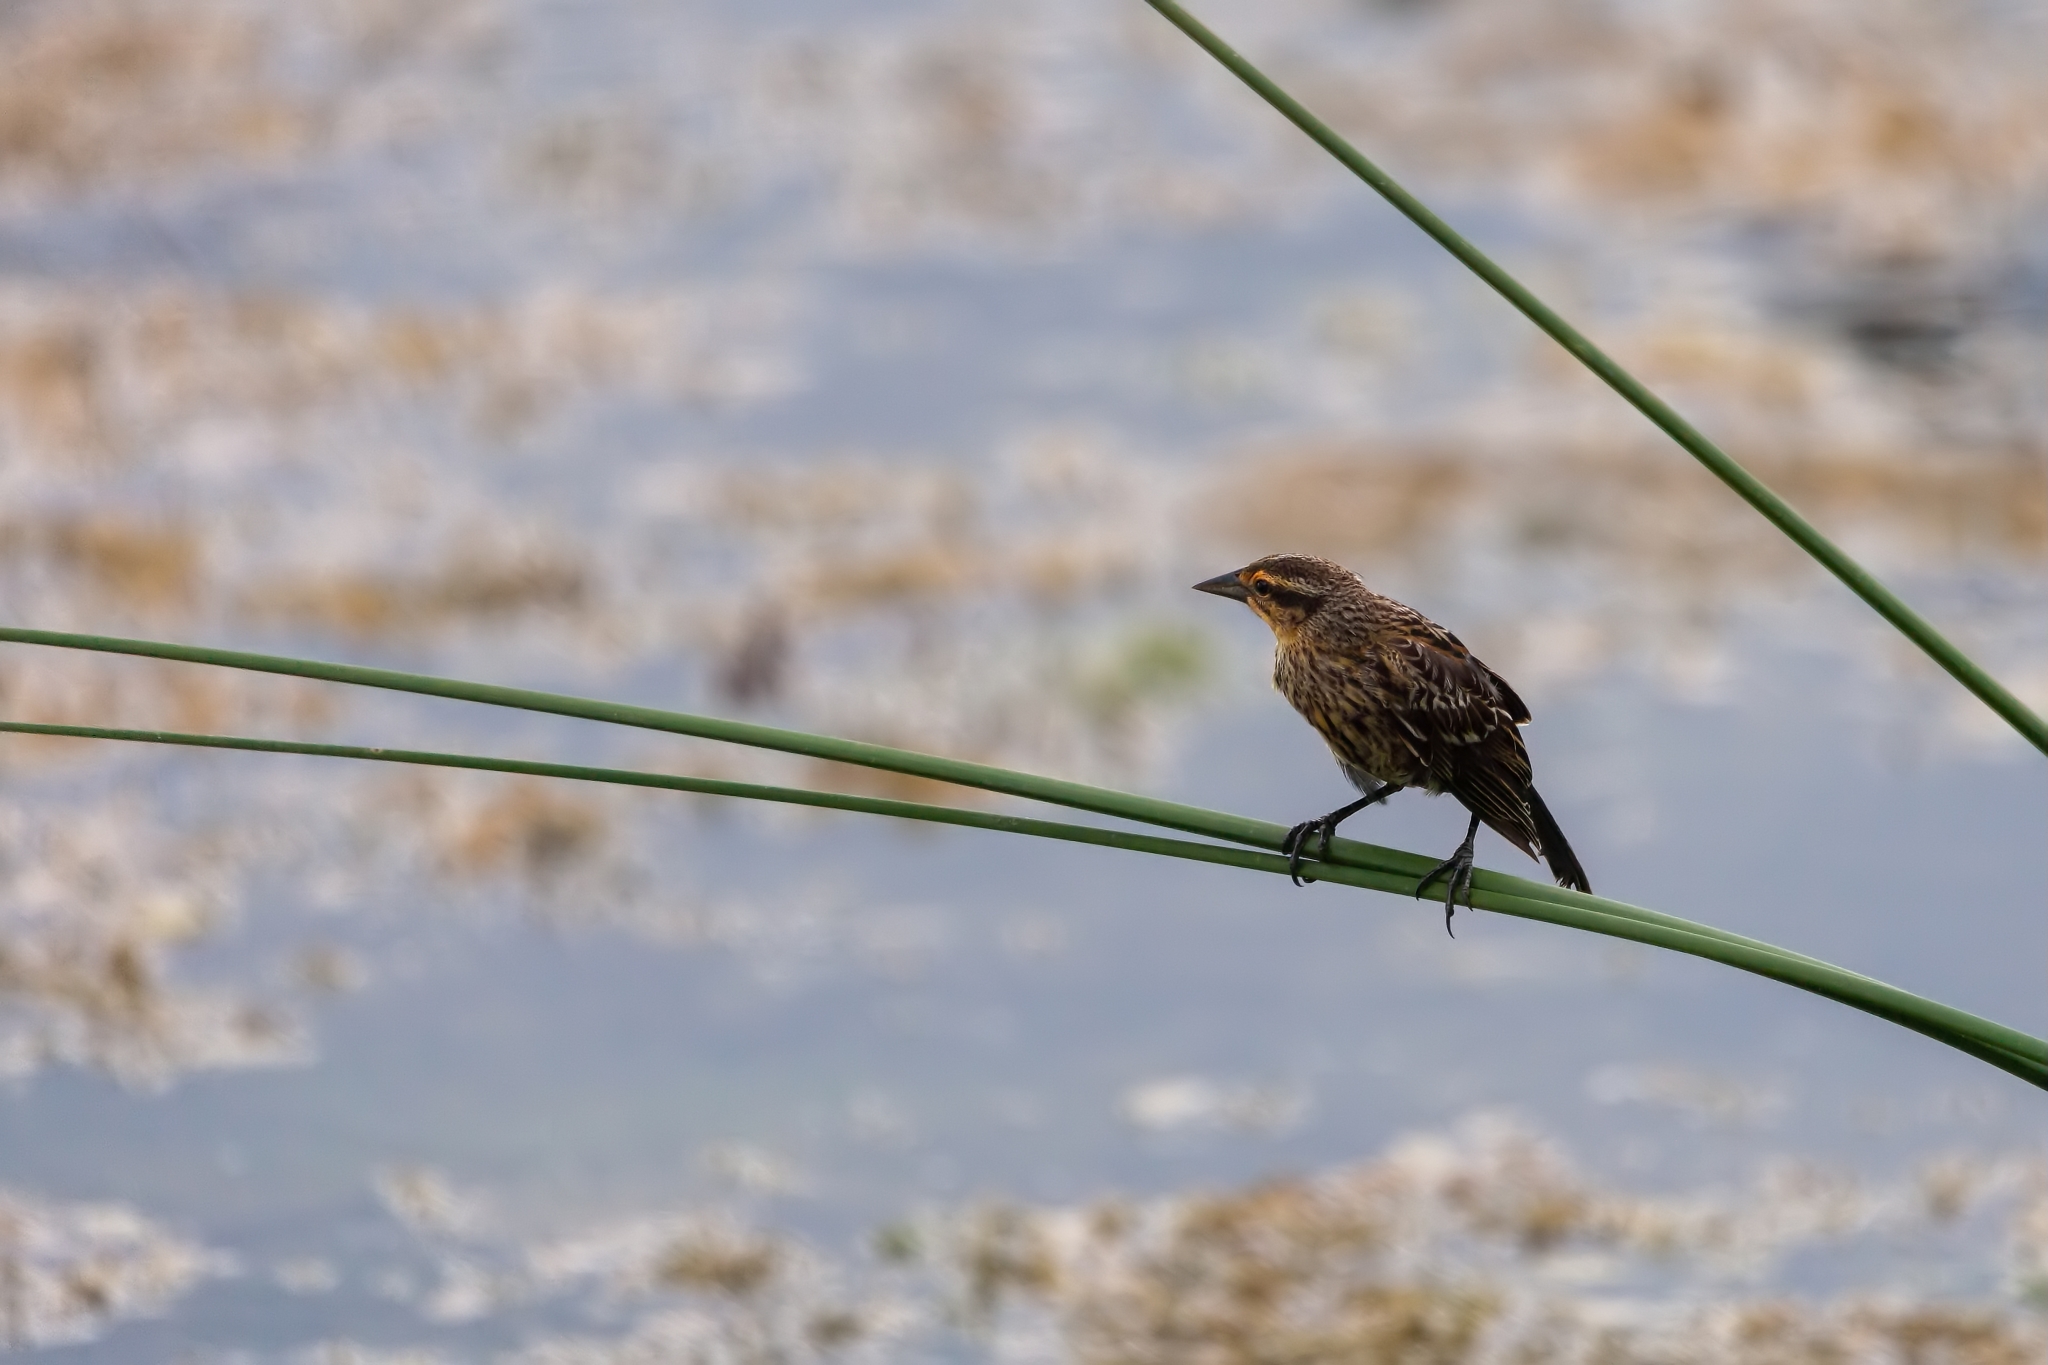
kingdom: Animalia
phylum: Chordata
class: Aves
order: Passeriformes
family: Icteridae
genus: Agelaius
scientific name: Agelaius phoeniceus
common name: Red-winged blackbird
